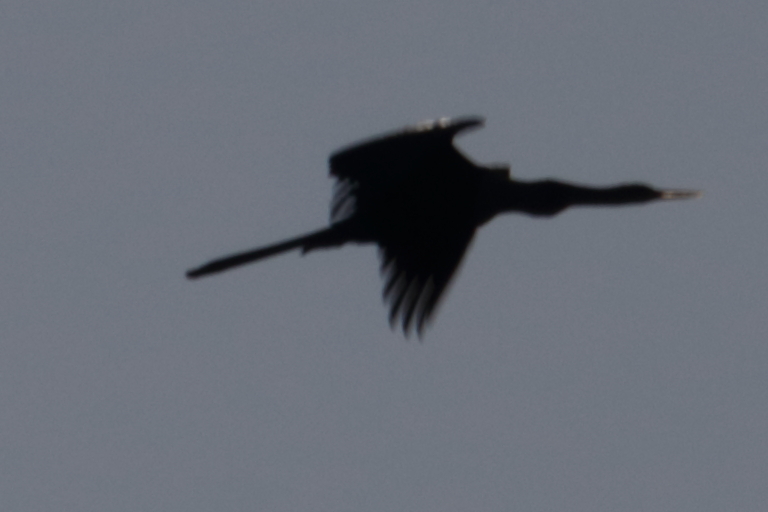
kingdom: Animalia
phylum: Chordata
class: Aves
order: Suliformes
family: Anhingidae
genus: Anhinga
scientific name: Anhinga anhinga
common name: Anhinga
